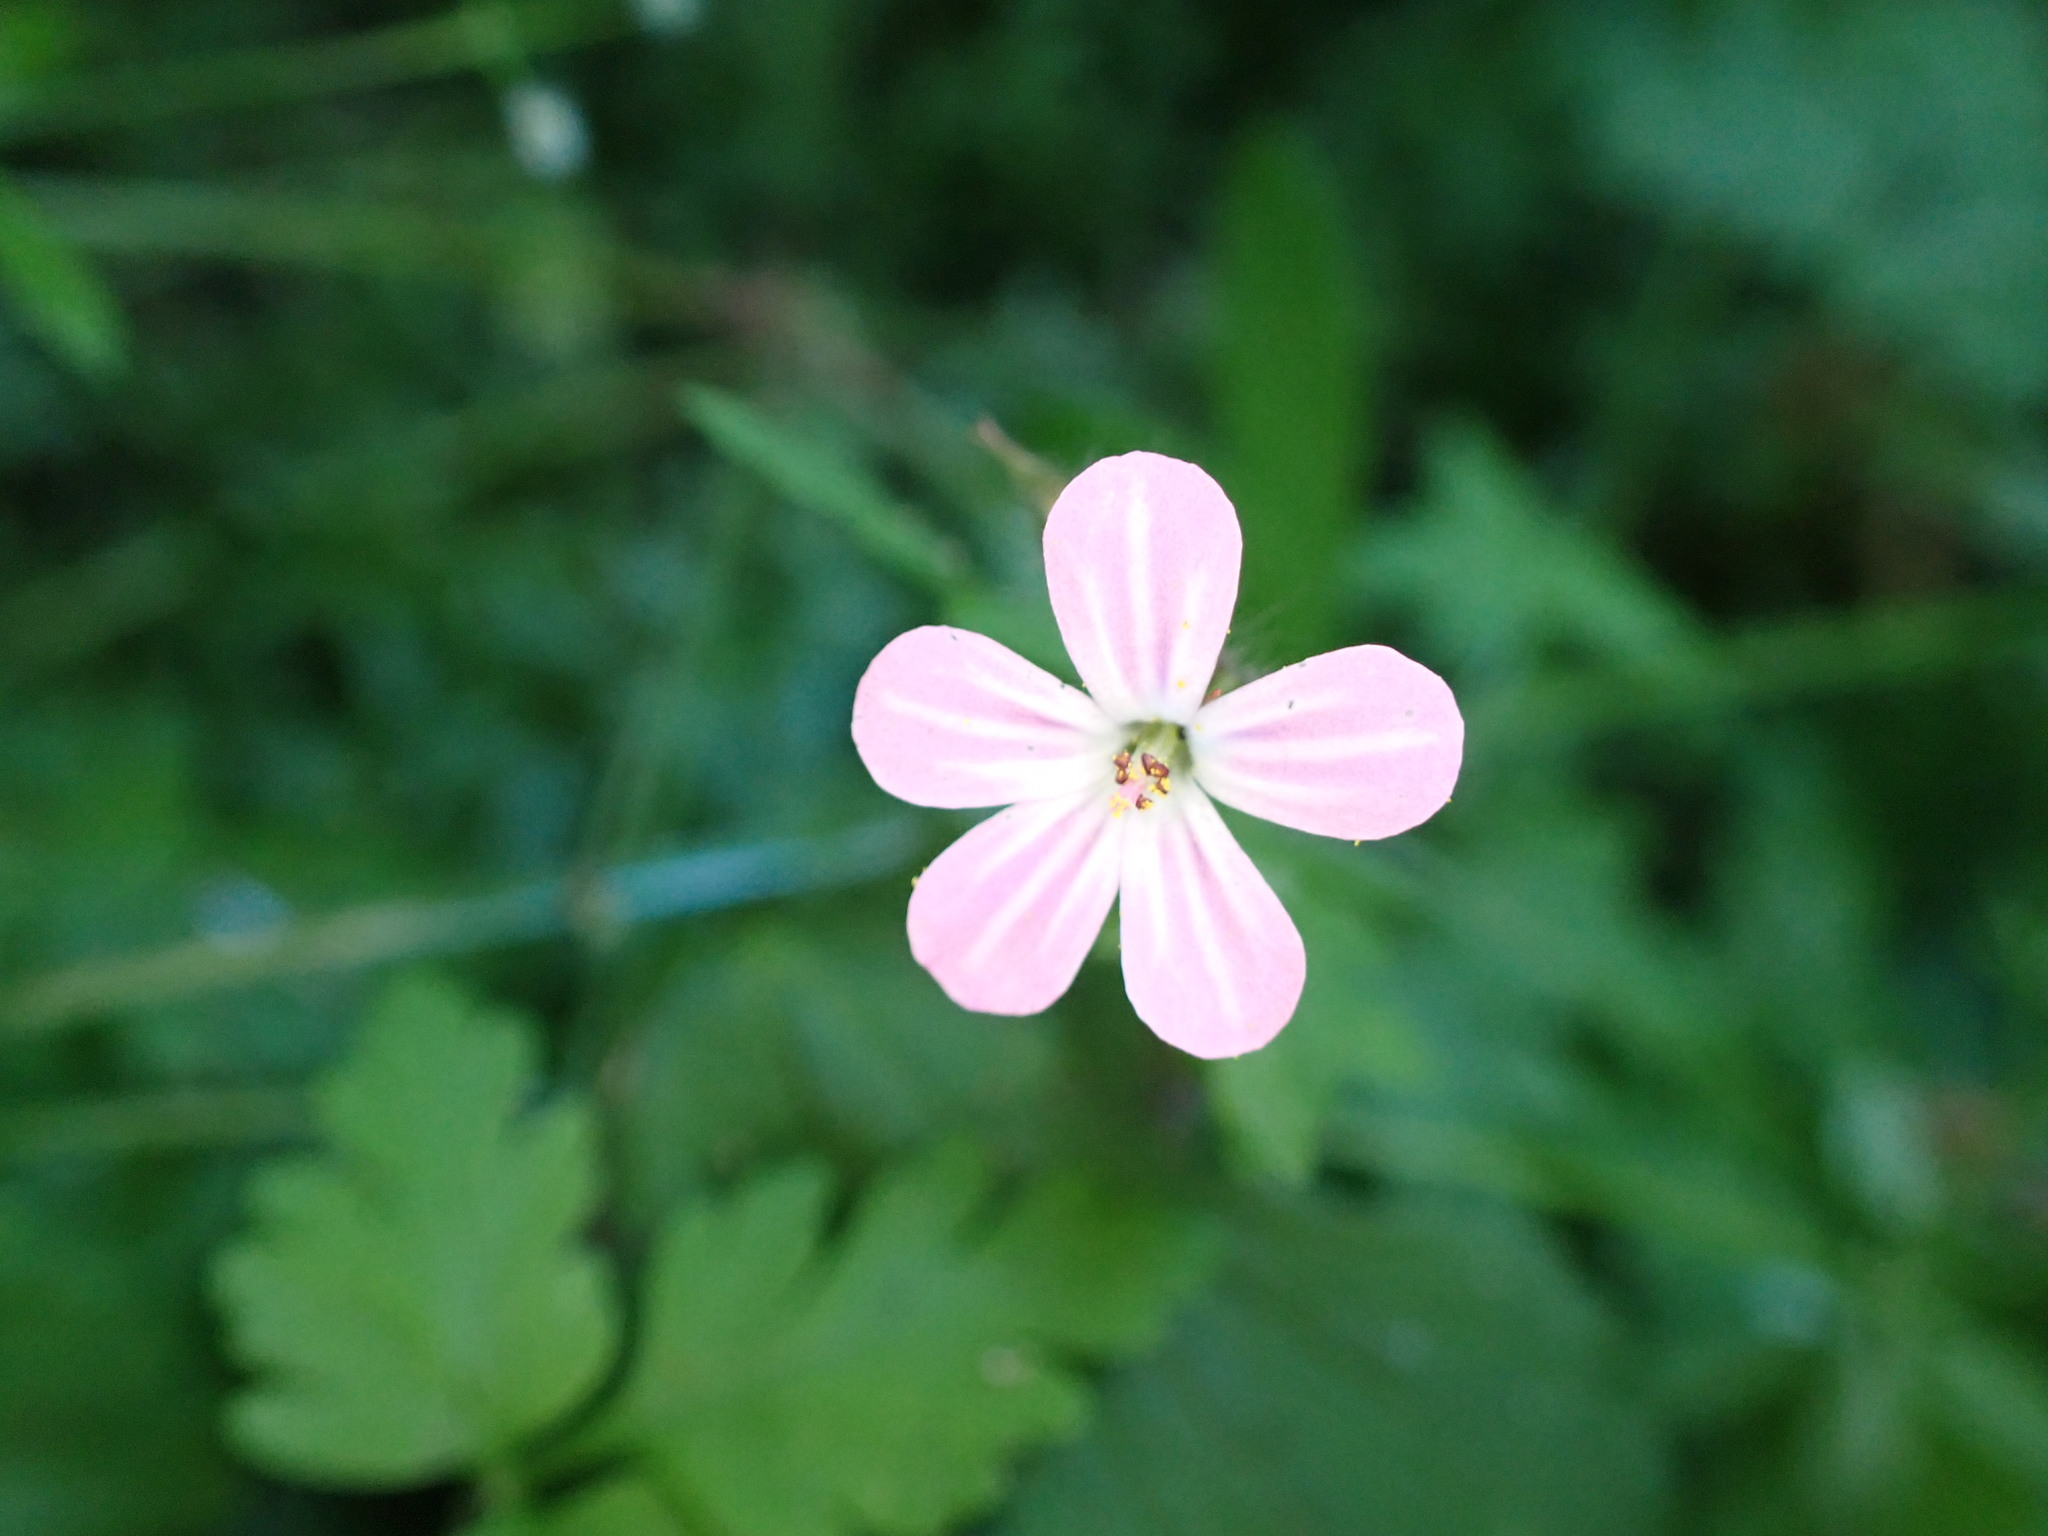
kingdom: Plantae
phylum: Tracheophyta
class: Magnoliopsida
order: Geraniales
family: Geraniaceae
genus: Geranium
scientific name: Geranium robertianum
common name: Herb-robert
